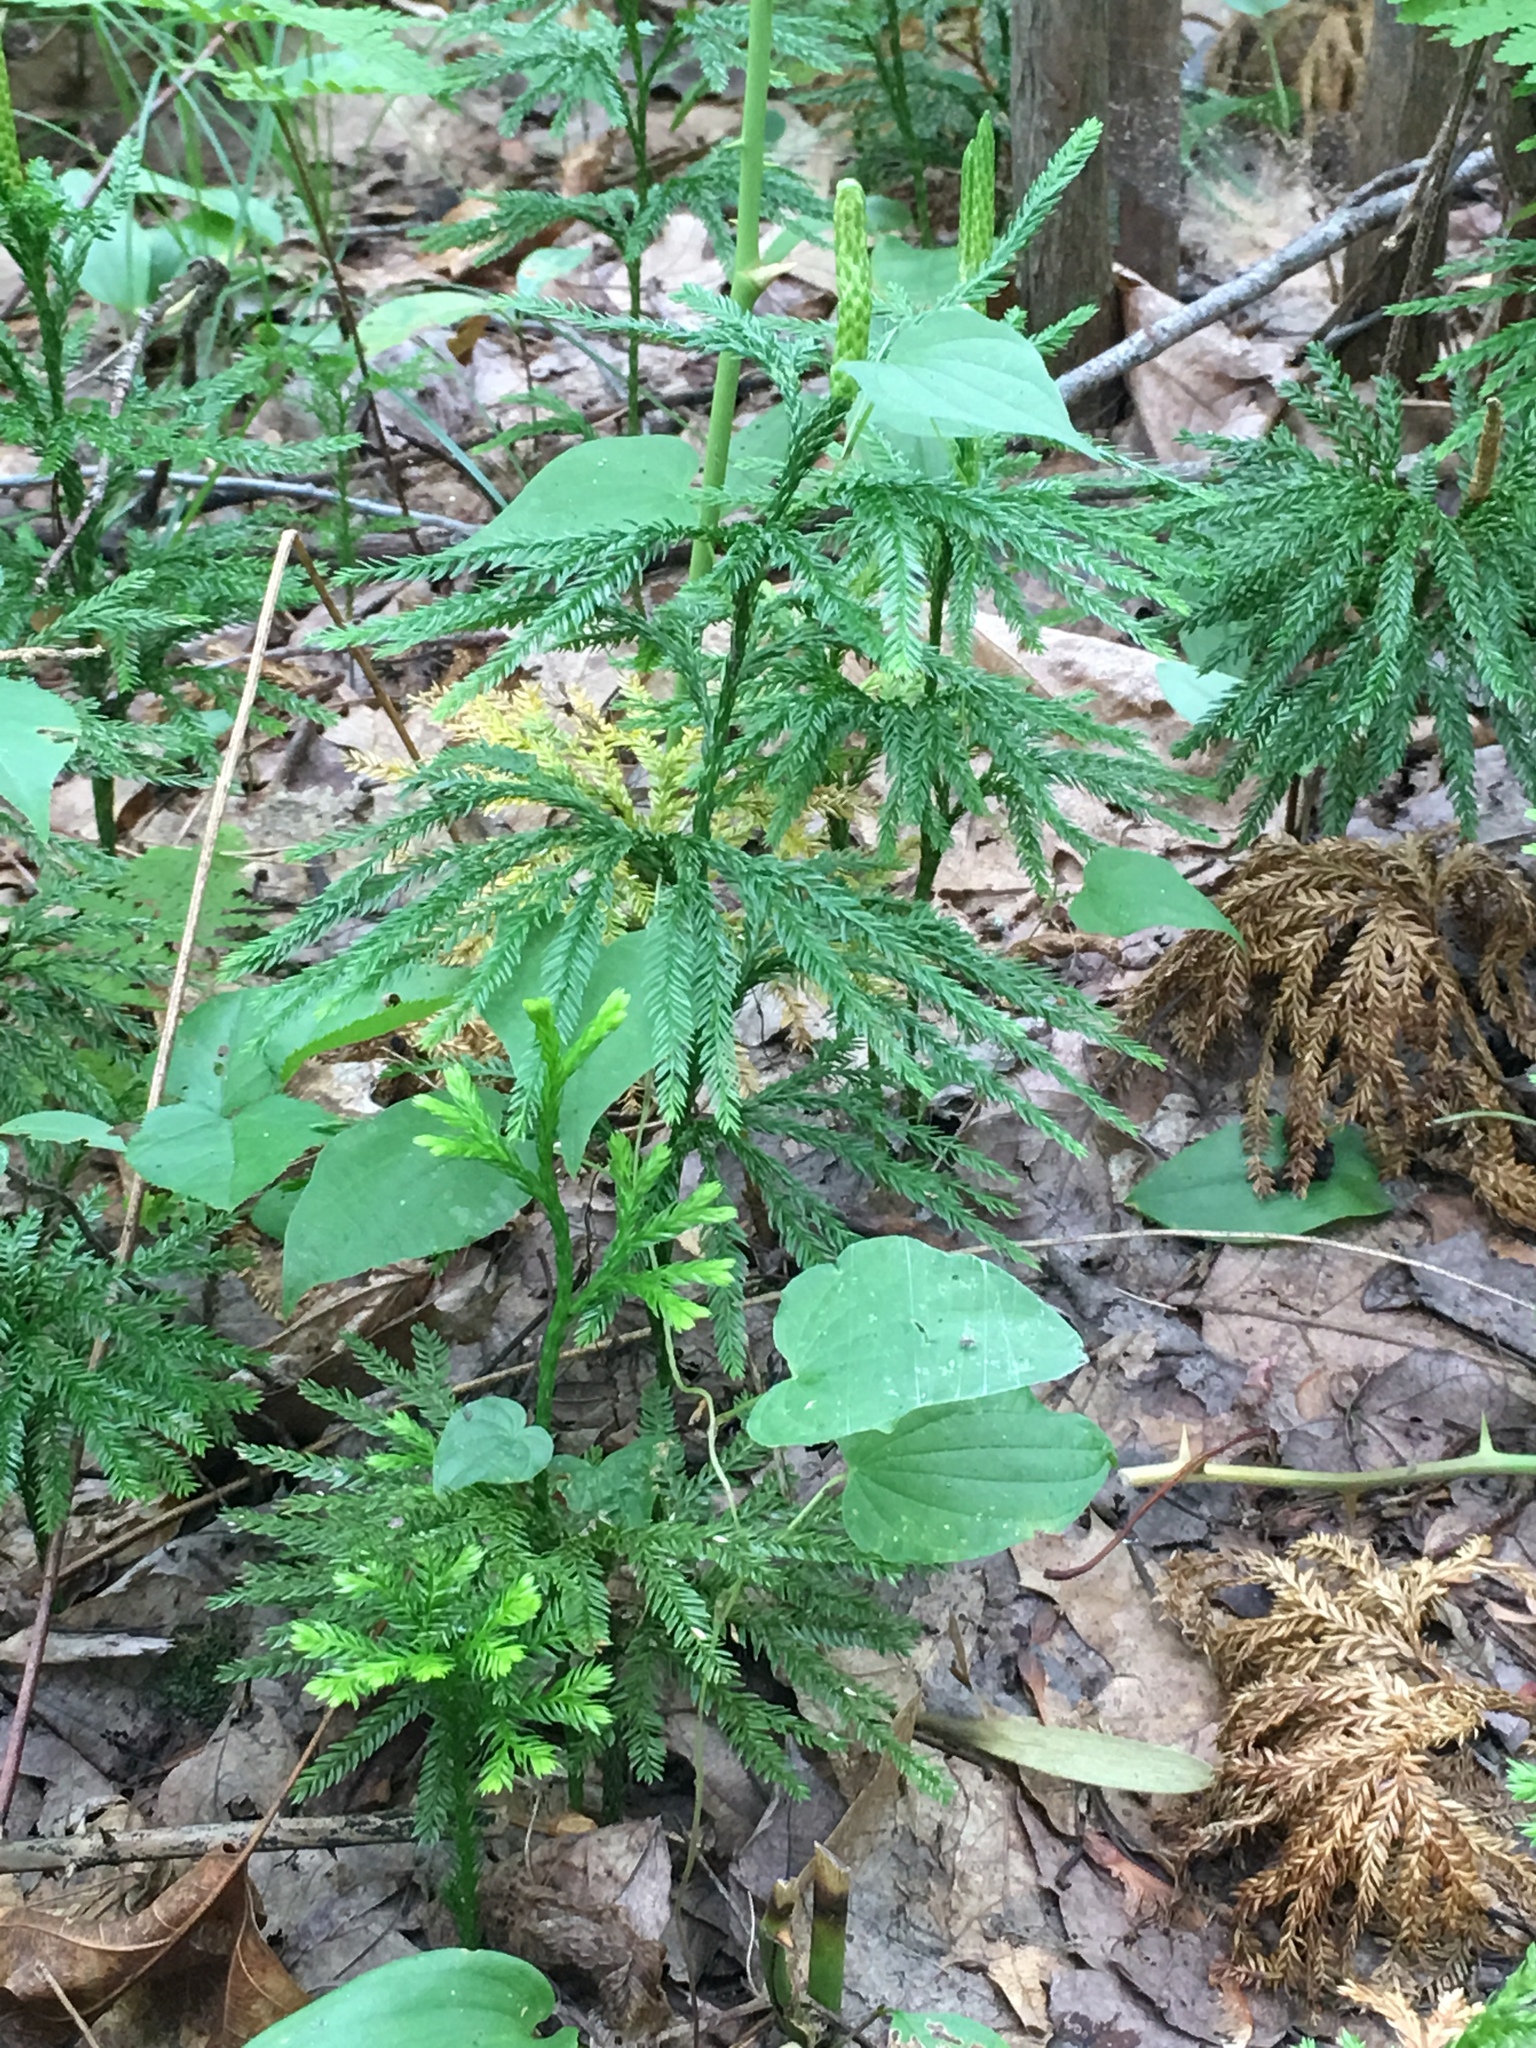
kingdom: Plantae
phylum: Tracheophyta
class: Lycopodiopsida
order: Lycopodiales
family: Lycopodiaceae
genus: Dendrolycopodium
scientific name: Dendrolycopodium obscurum
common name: Common ground-pine
